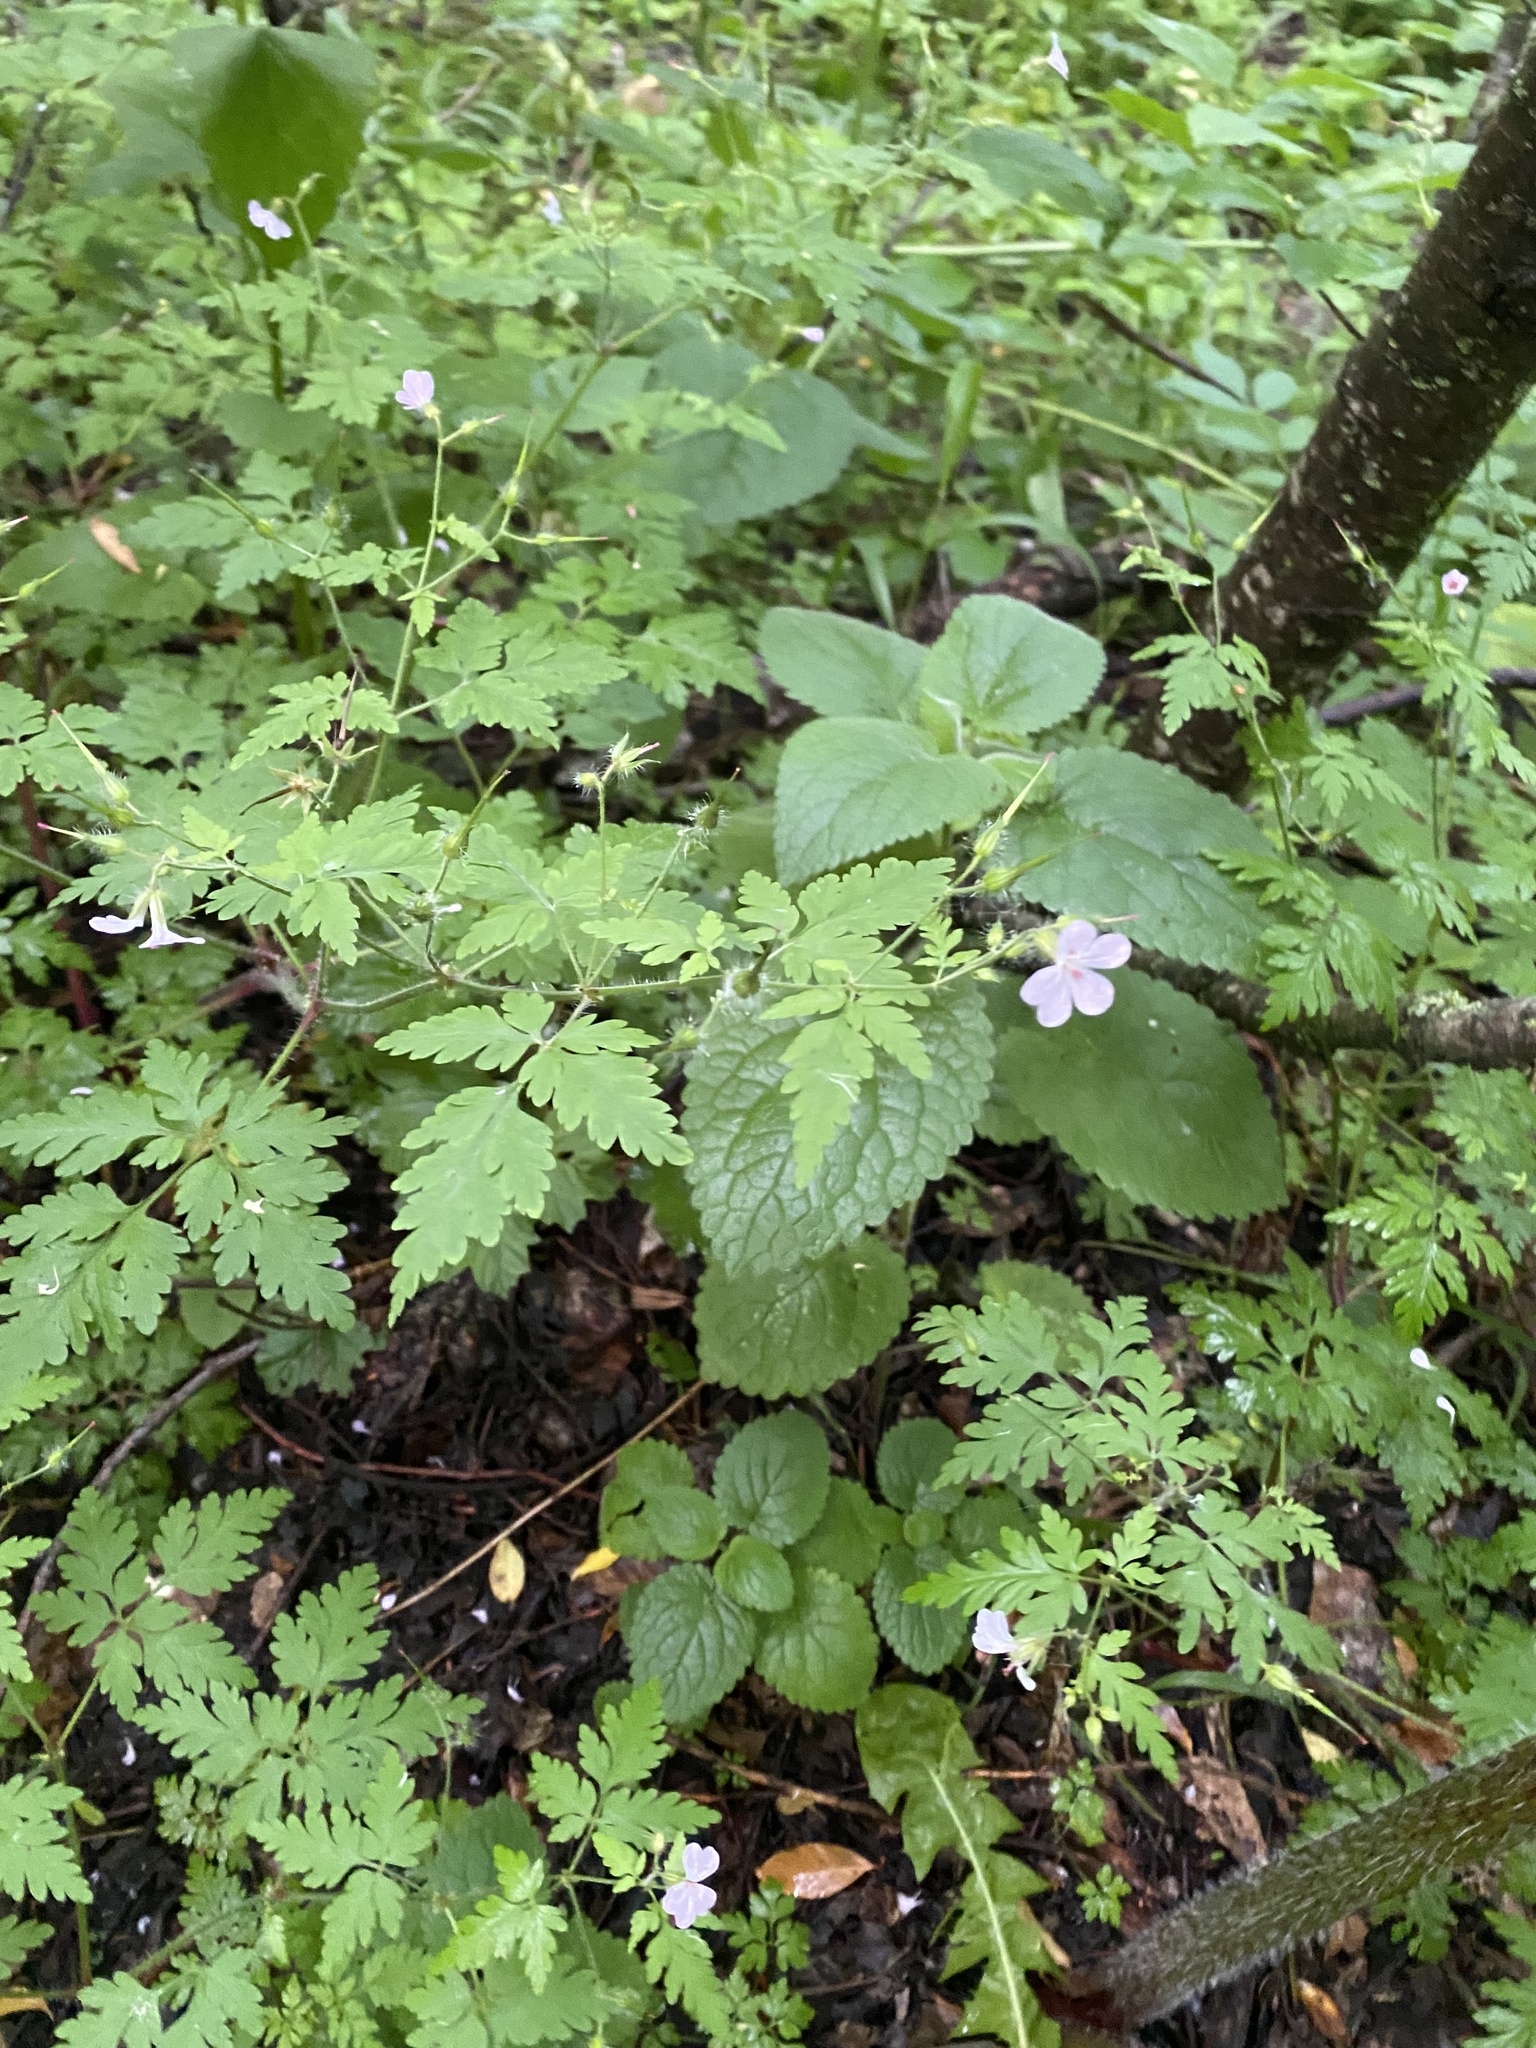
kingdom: Plantae
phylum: Tracheophyta
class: Magnoliopsida
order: Geraniales
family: Geraniaceae
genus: Geranium
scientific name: Geranium robertianum
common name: Herb-robert
